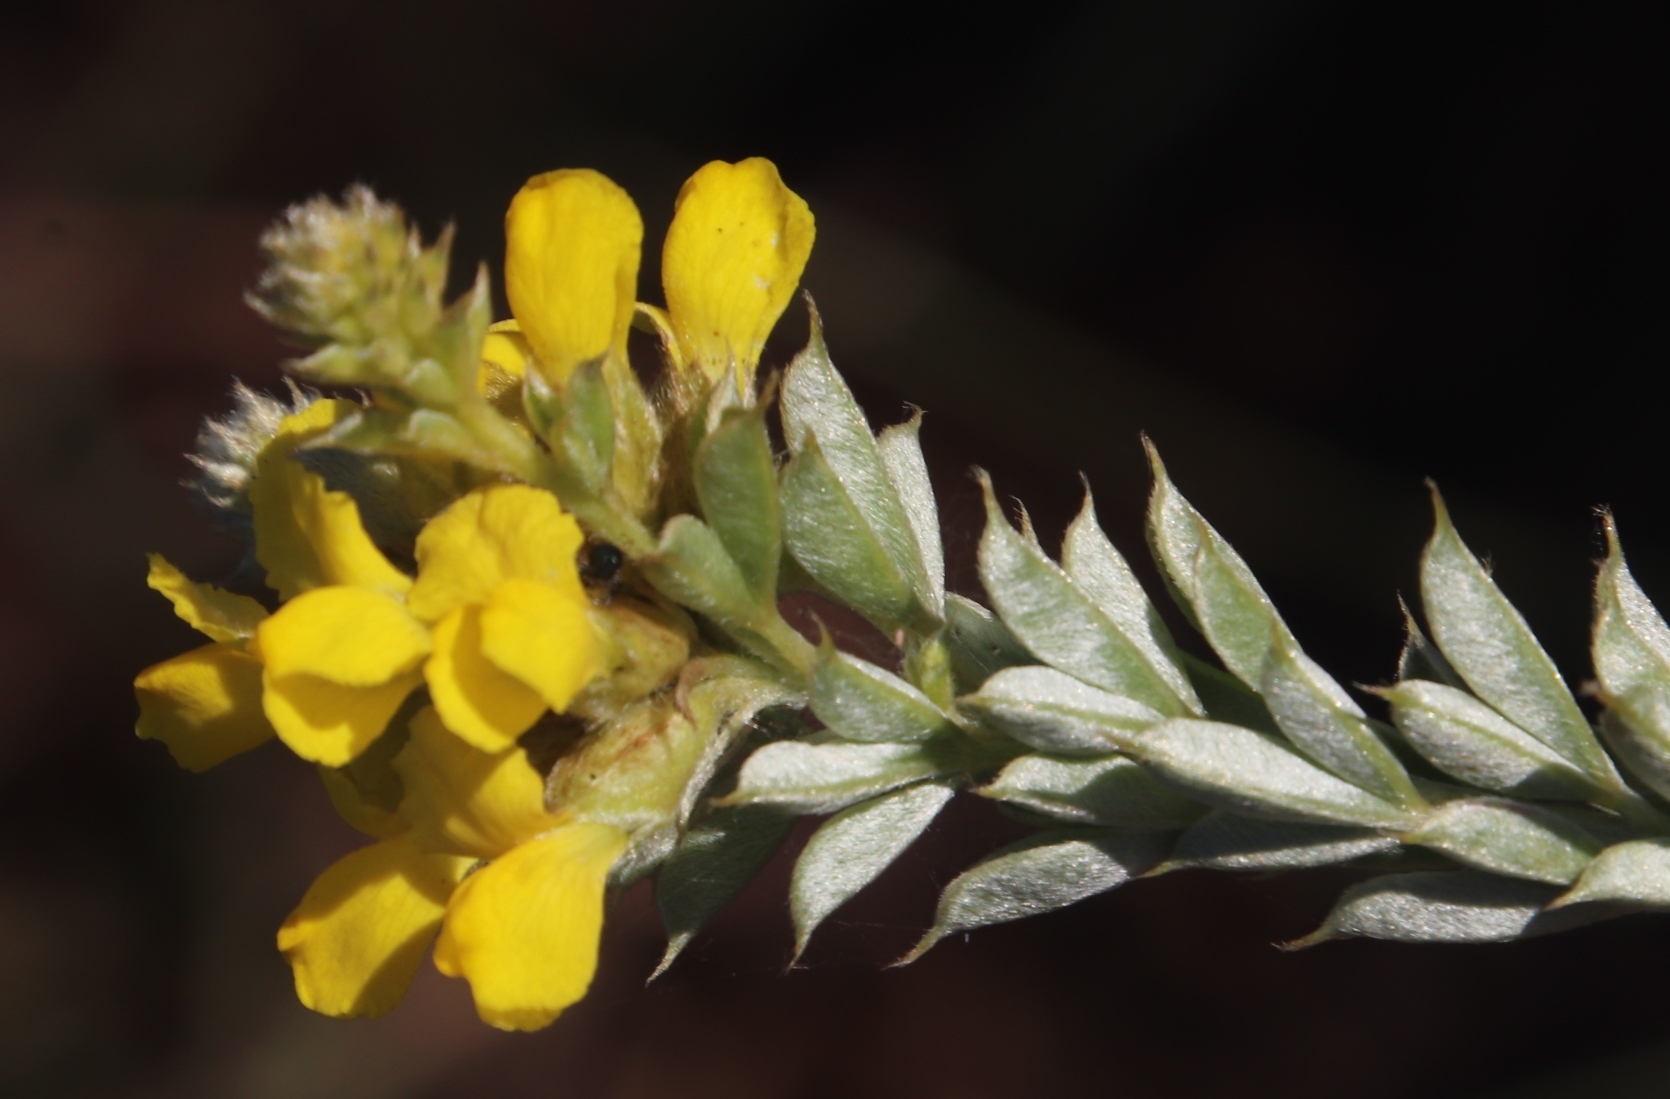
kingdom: Plantae
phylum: Tracheophyta
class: Magnoliopsida
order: Fabales
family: Fabaceae
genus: Pearsonia
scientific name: Pearsonia sessilifolia
